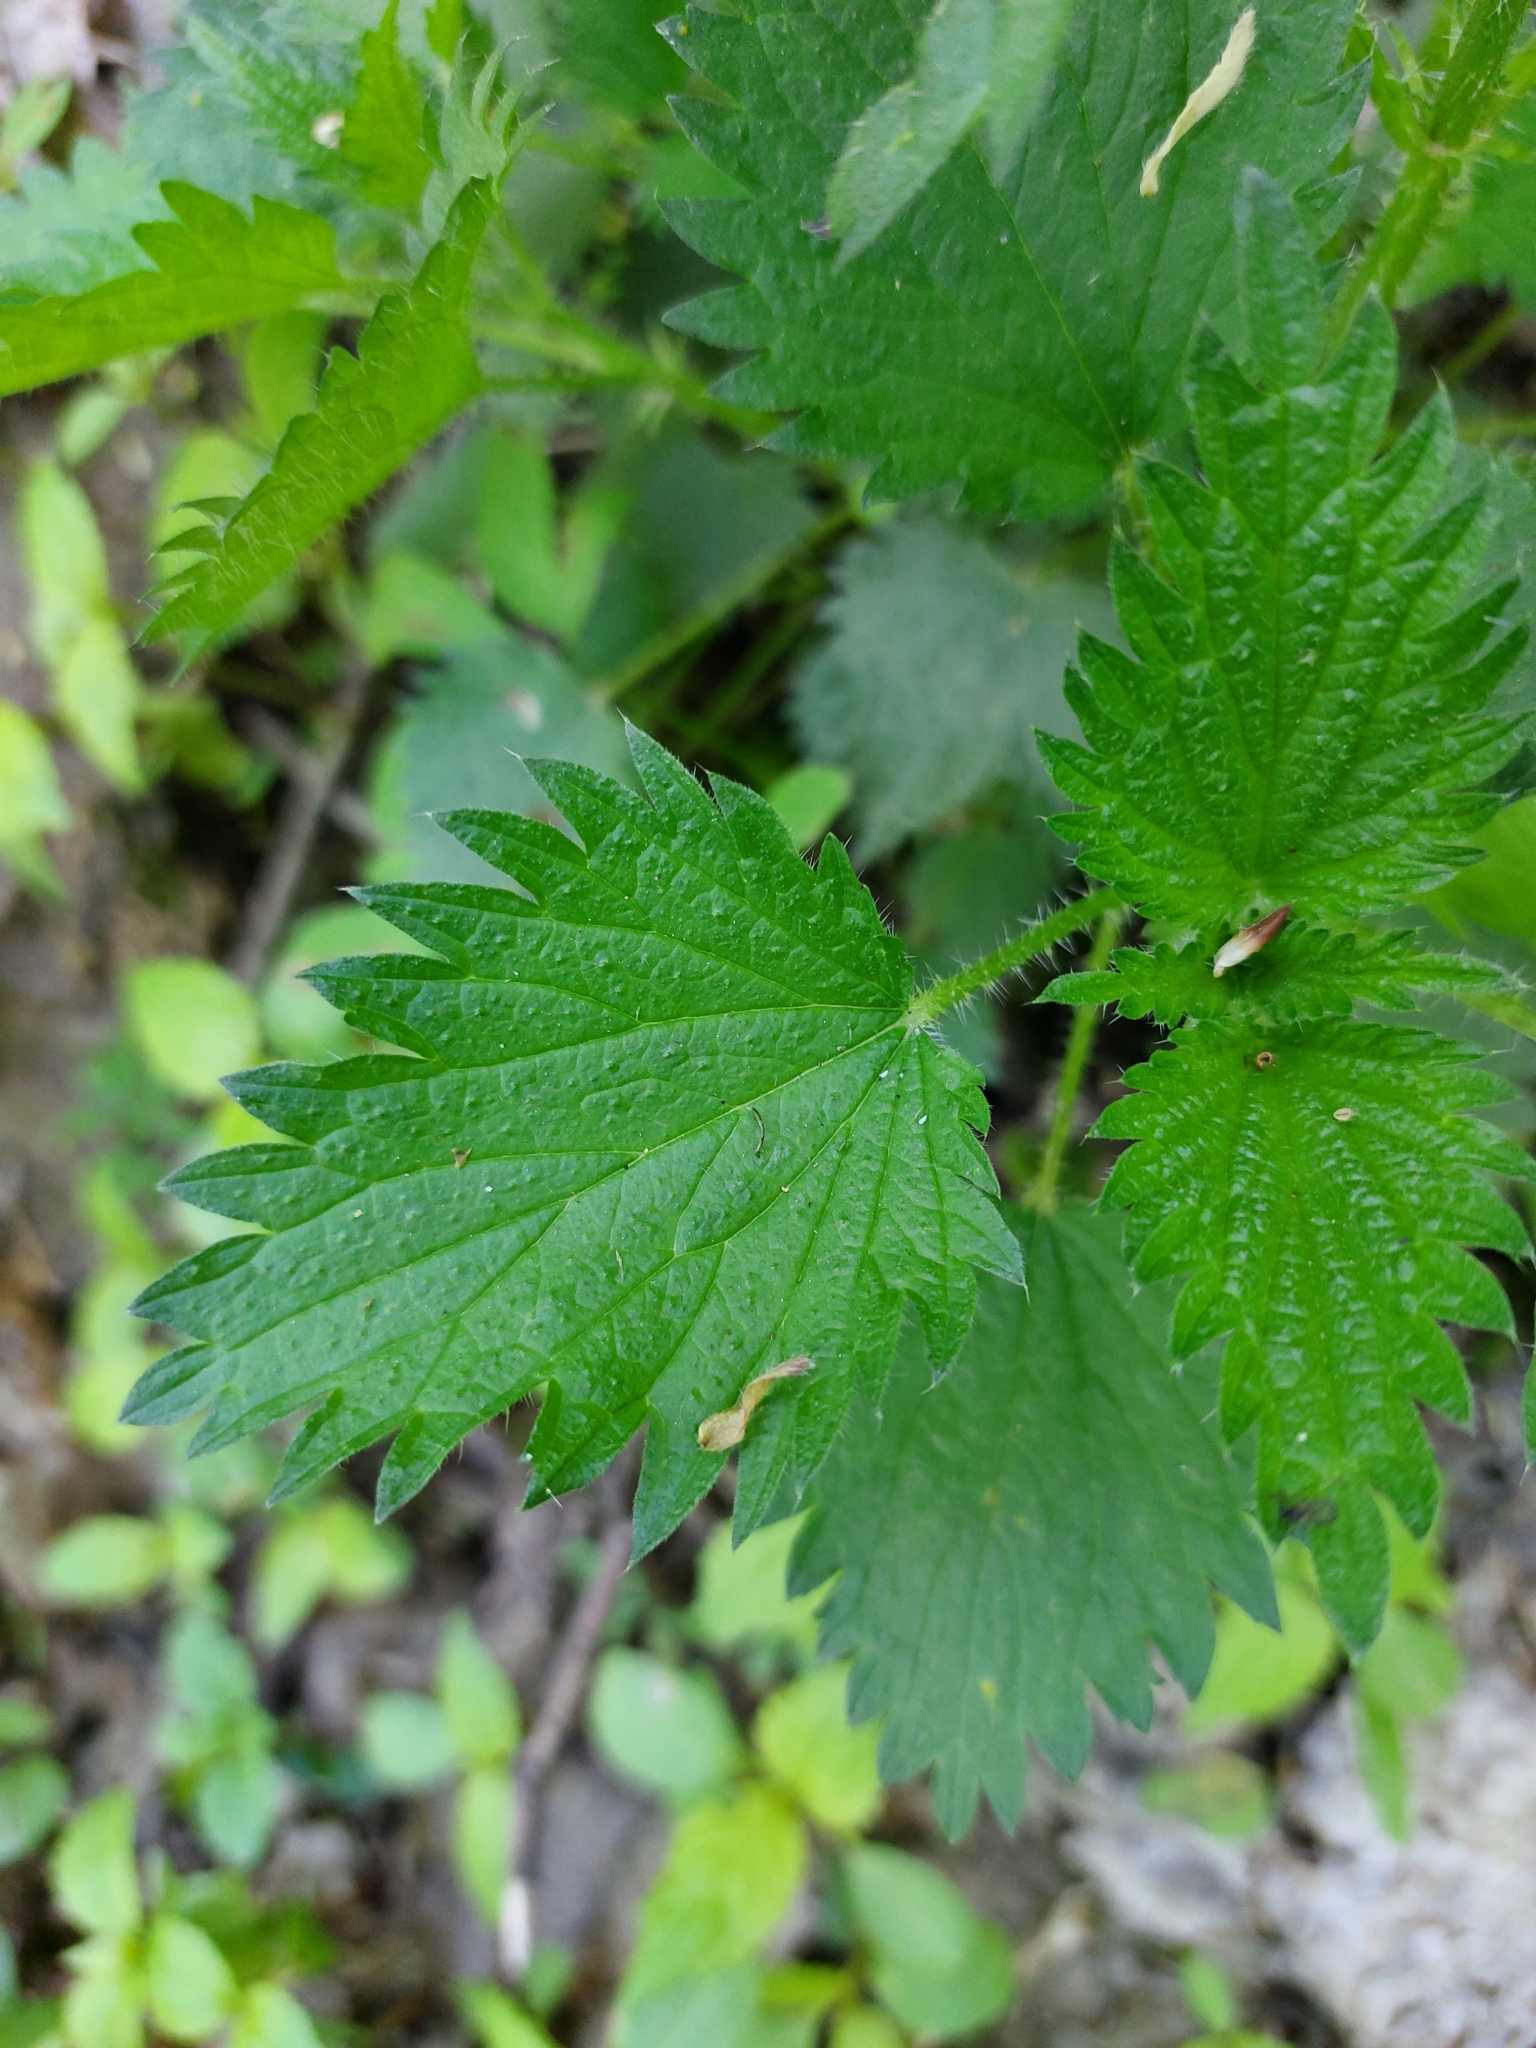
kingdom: Plantae
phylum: Tracheophyta
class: Magnoliopsida
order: Rosales
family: Urticaceae
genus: Urtica
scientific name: Urtica dioica
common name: Common nettle
